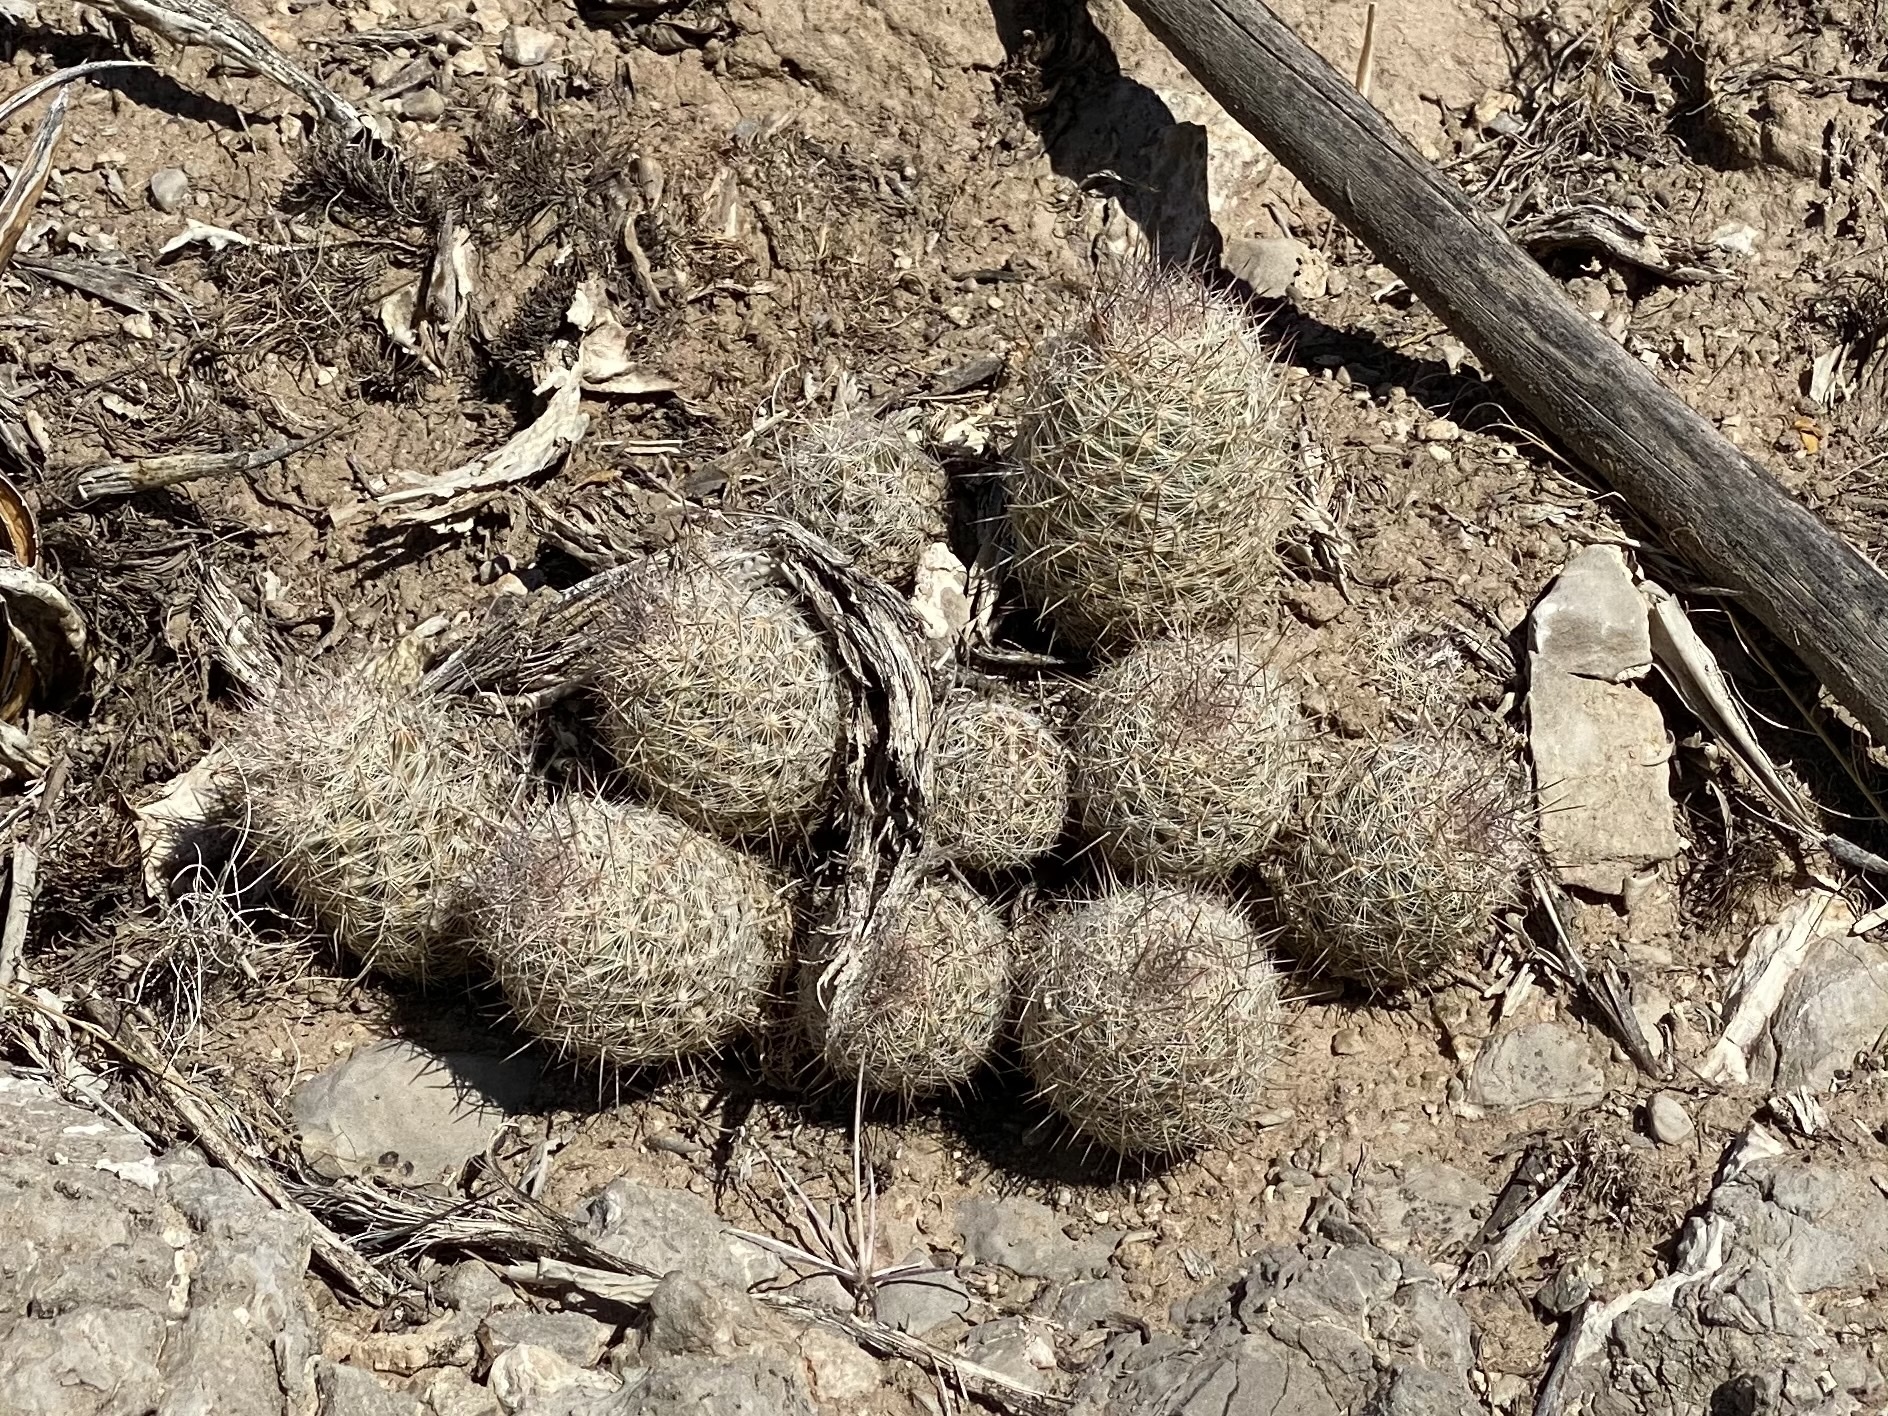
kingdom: Plantae
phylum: Tracheophyta
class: Magnoliopsida
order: Caryophyllales
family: Cactaceae
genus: Pelecyphora
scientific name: Pelecyphora tuberculosa
